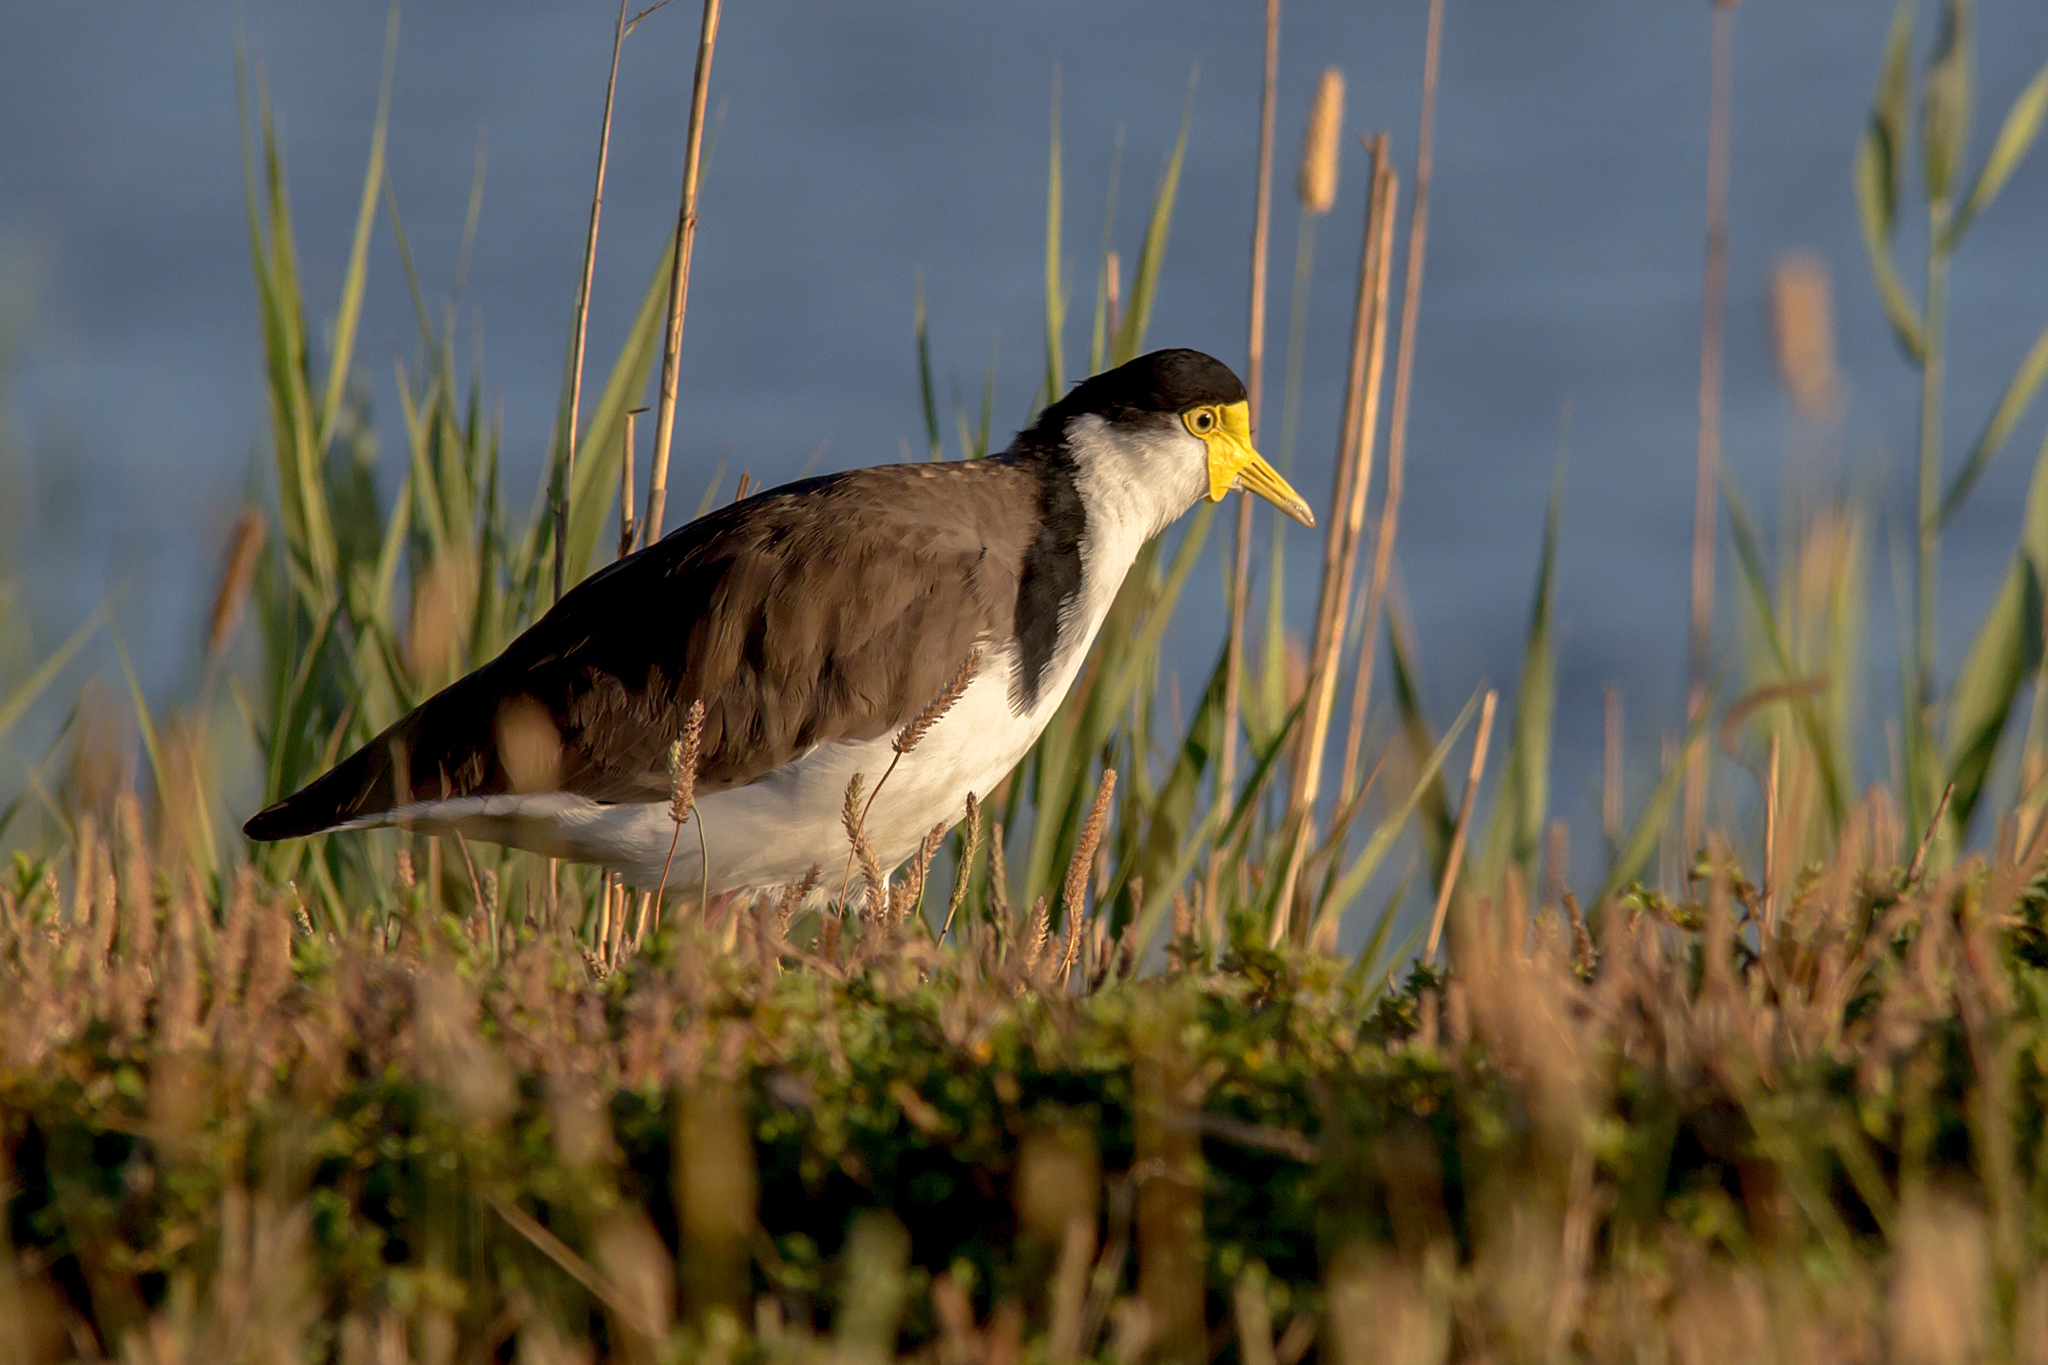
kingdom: Animalia
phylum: Chordata
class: Aves
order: Charadriiformes
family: Charadriidae
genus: Vanellus
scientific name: Vanellus miles
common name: Masked lapwing
